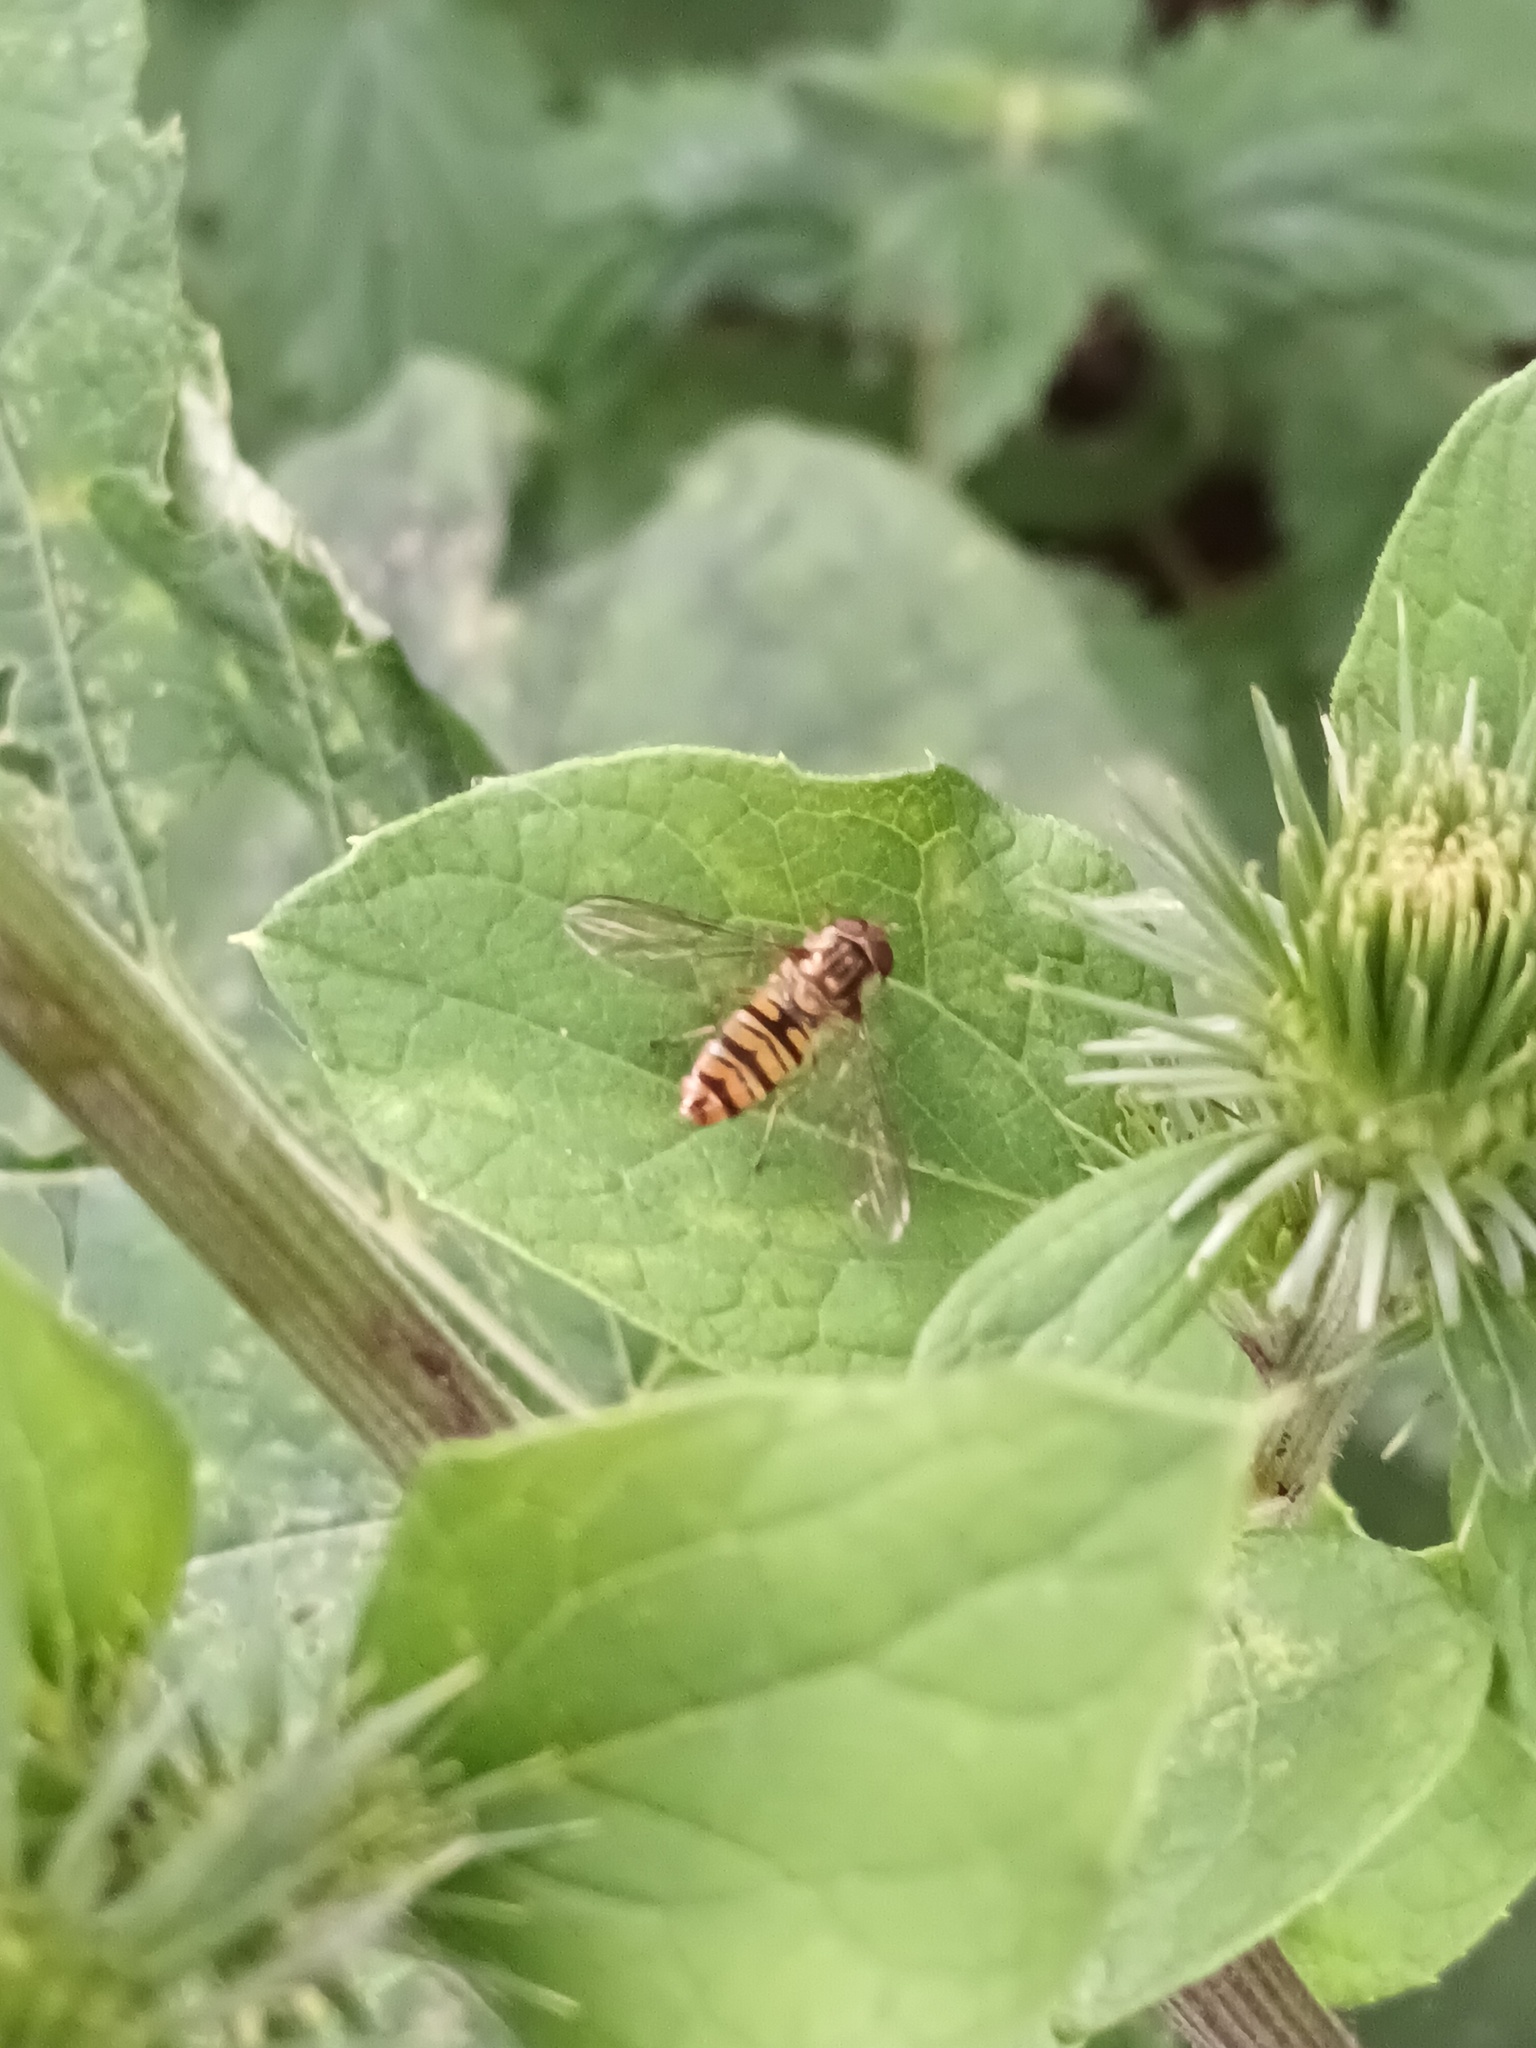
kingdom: Animalia
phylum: Arthropoda
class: Insecta
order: Diptera
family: Syrphidae
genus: Episyrphus
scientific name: Episyrphus balteatus
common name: Marmalade hoverfly
